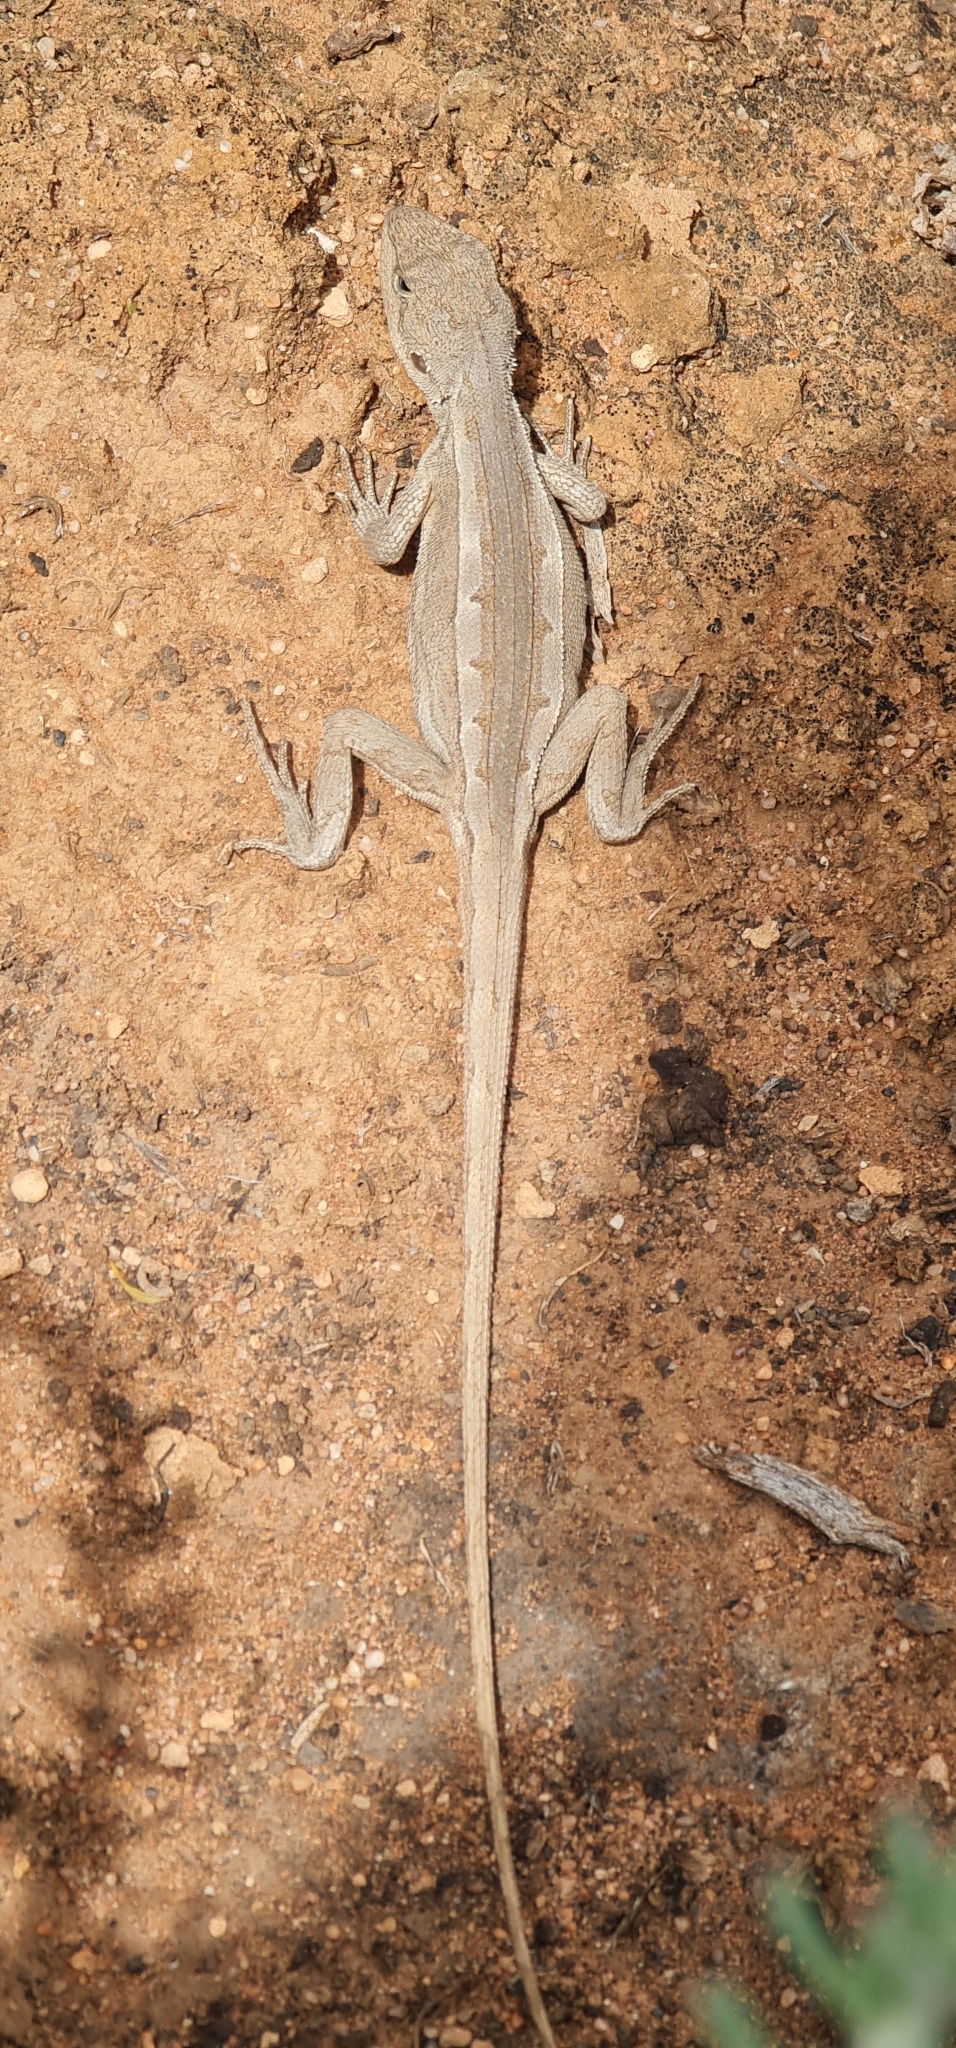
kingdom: Animalia
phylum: Chordata
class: Squamata
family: Agamidae
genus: Diporiphora
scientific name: Diporiphora nobbi
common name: Nobbi
